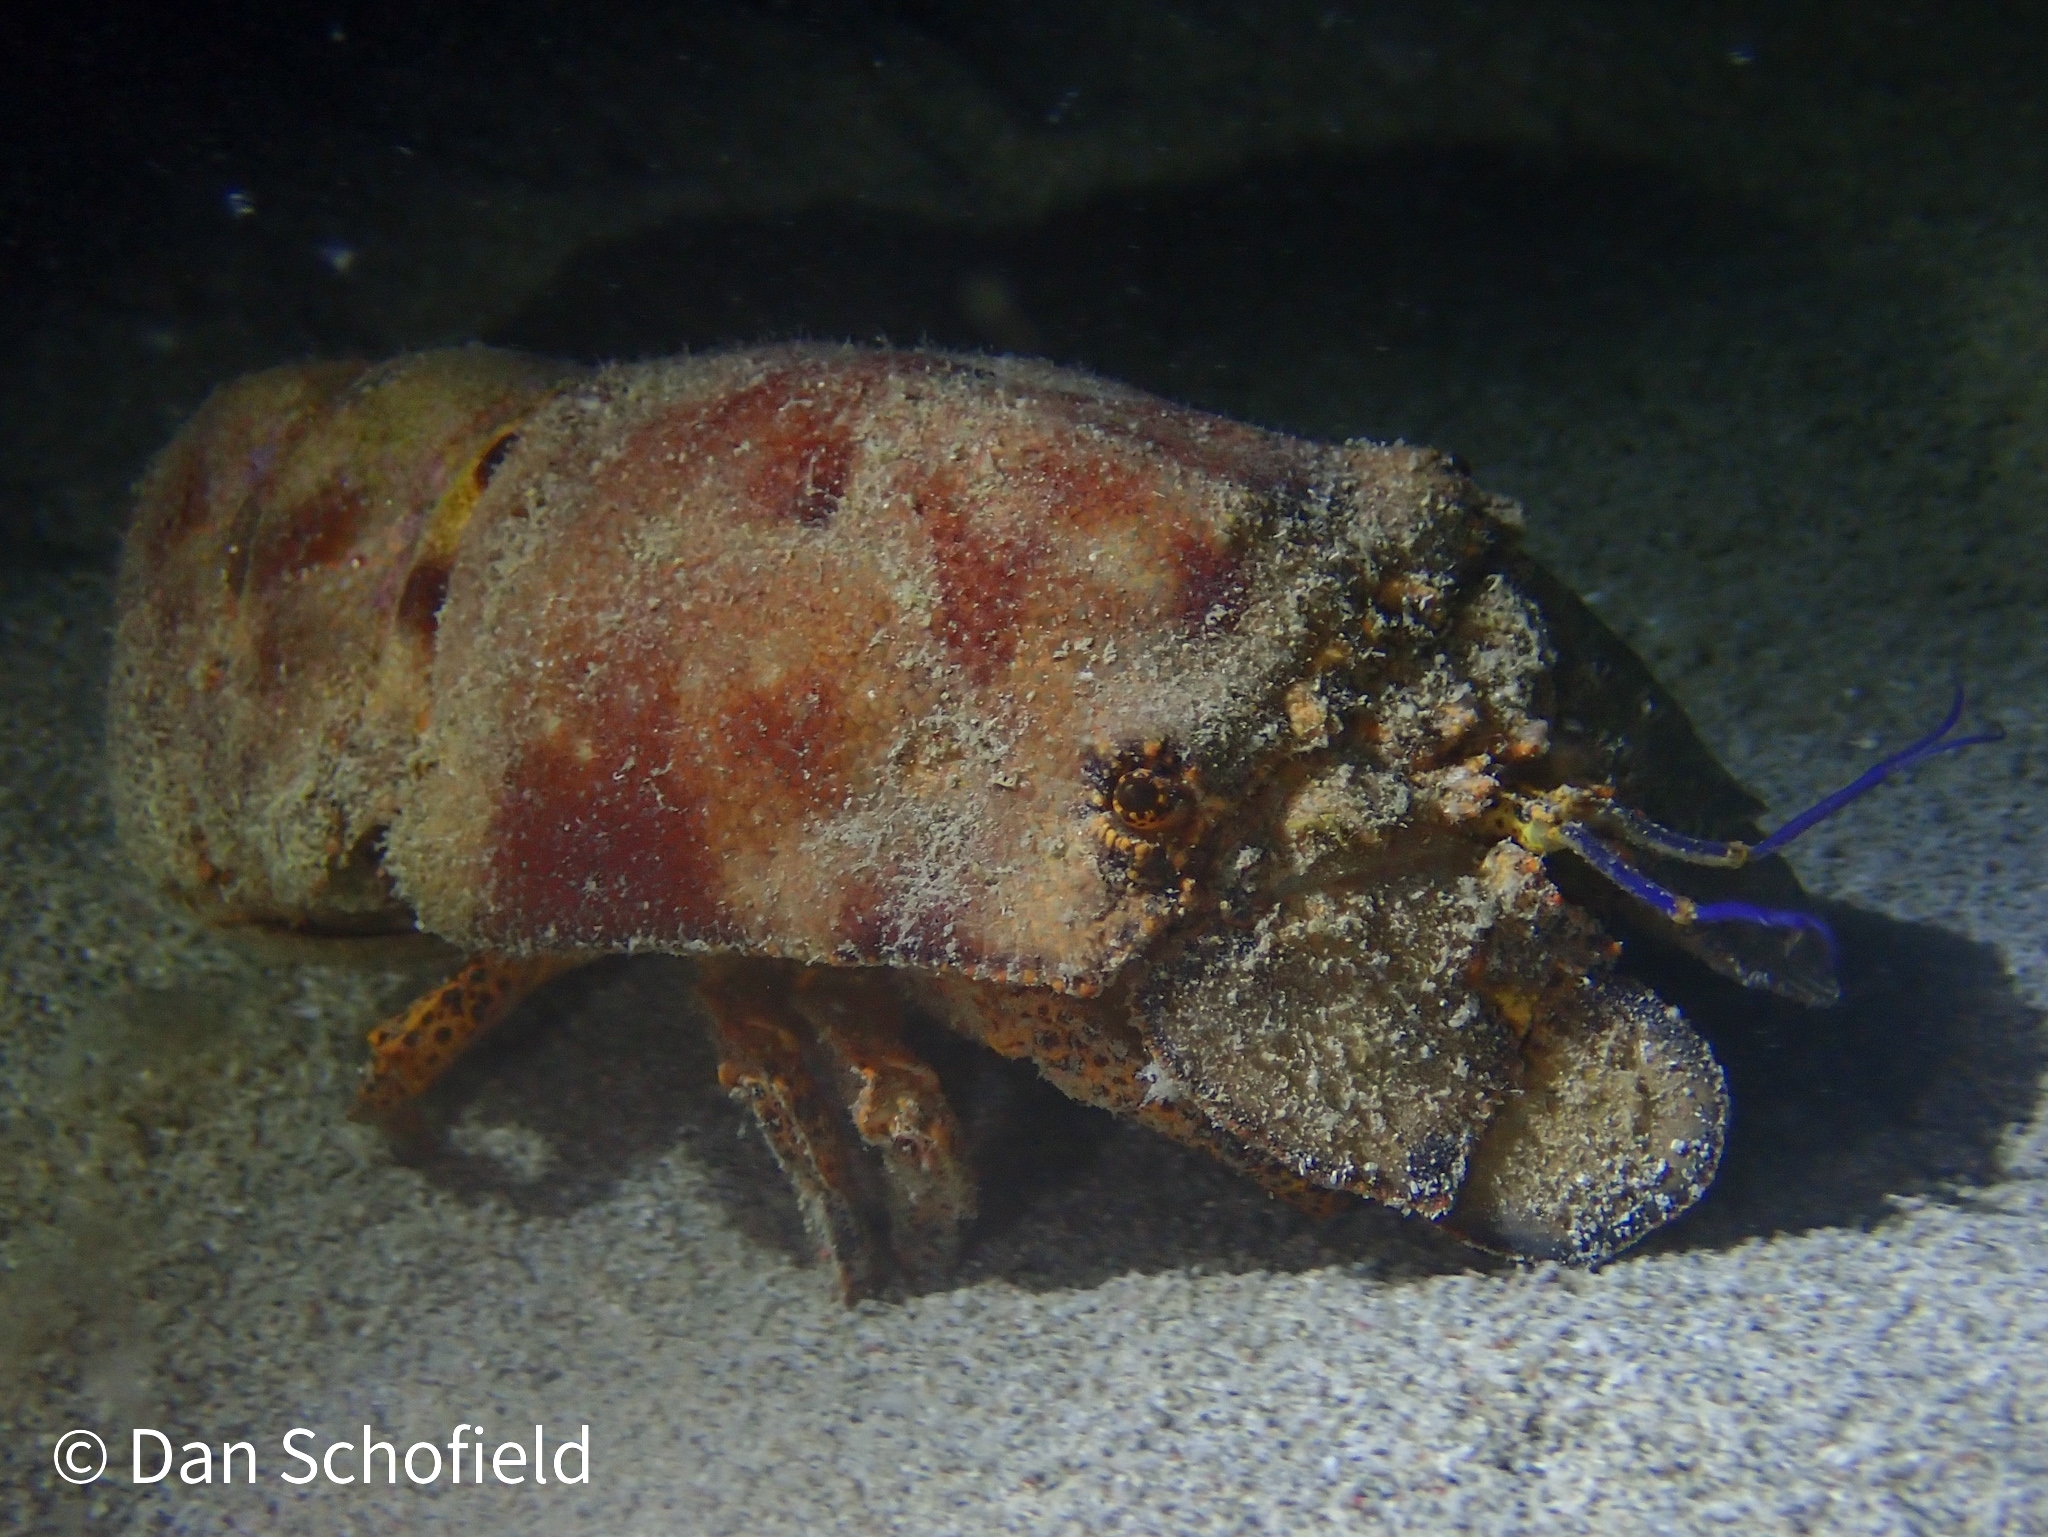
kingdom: Animalia
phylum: Arthropoda
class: Malacostraca
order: Decapoda
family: Scyllaridae
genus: Scyllarides
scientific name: Scyllarides aequinoctialis
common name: Spanish slipper lobster
